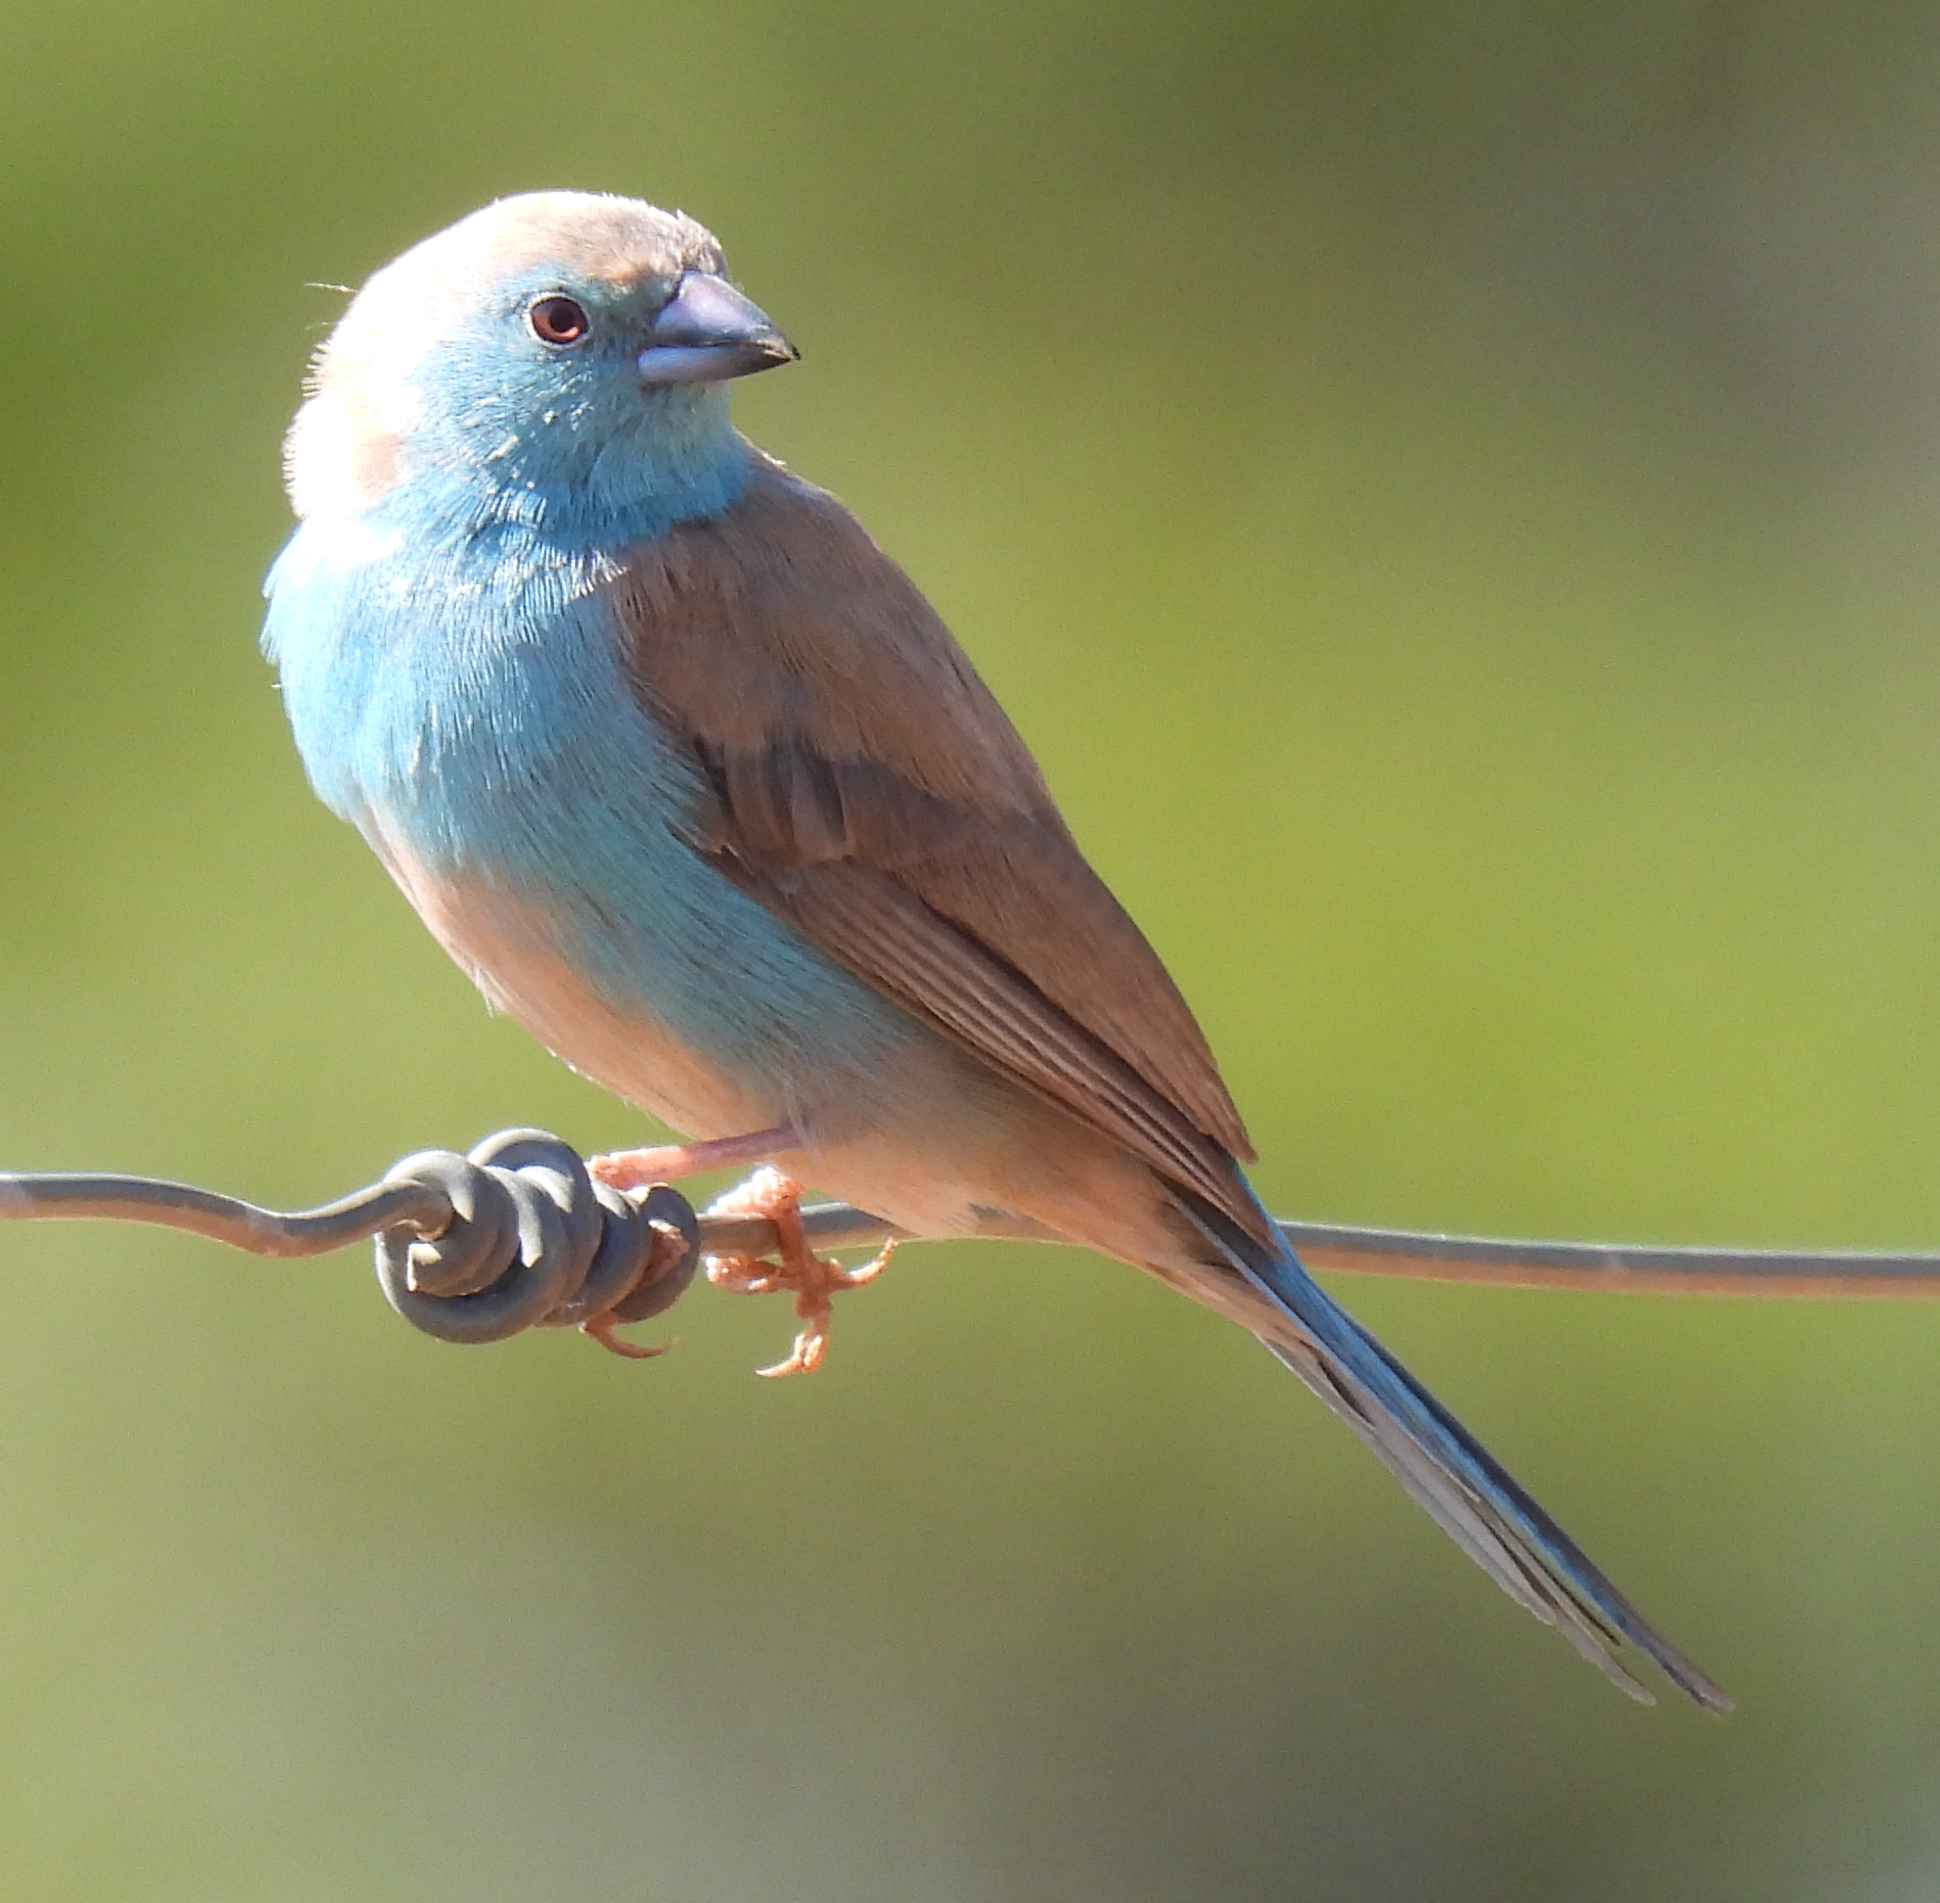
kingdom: Animalia
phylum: Chordata
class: Aves
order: Passeriformes
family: Estrildidae
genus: Uraeginthus
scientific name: Uraeginthus angolensis
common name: Blue waxbill
